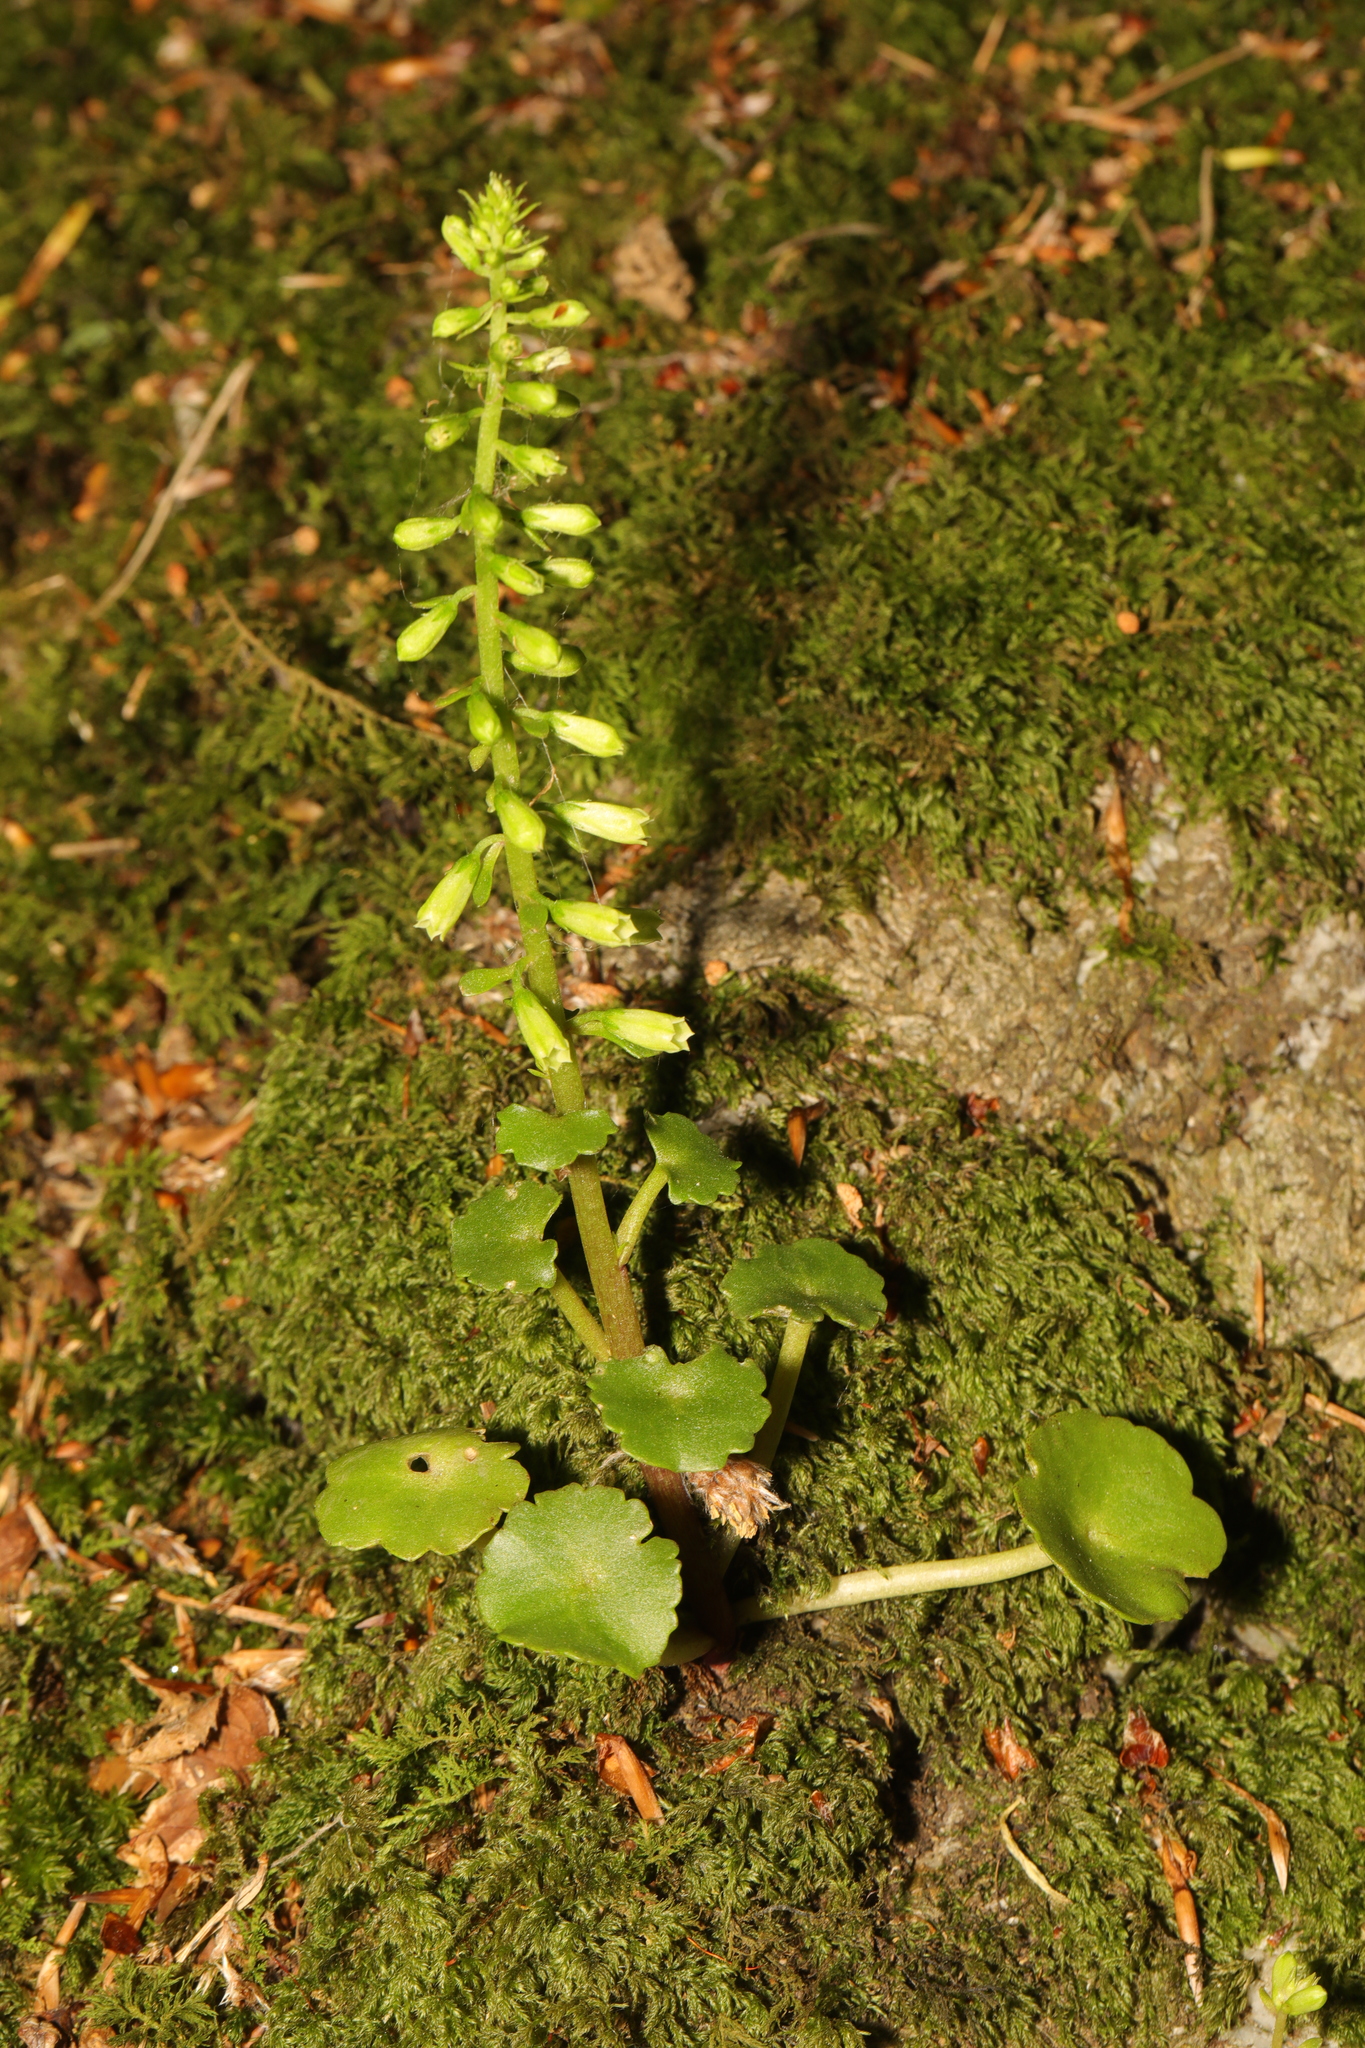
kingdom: Plantae
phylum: Tracheophyta
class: Magnoliopsida
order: Saxifragales
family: Crassulaceae
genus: Umbilicus
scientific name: Umbilicus rupestris
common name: Navelwort
